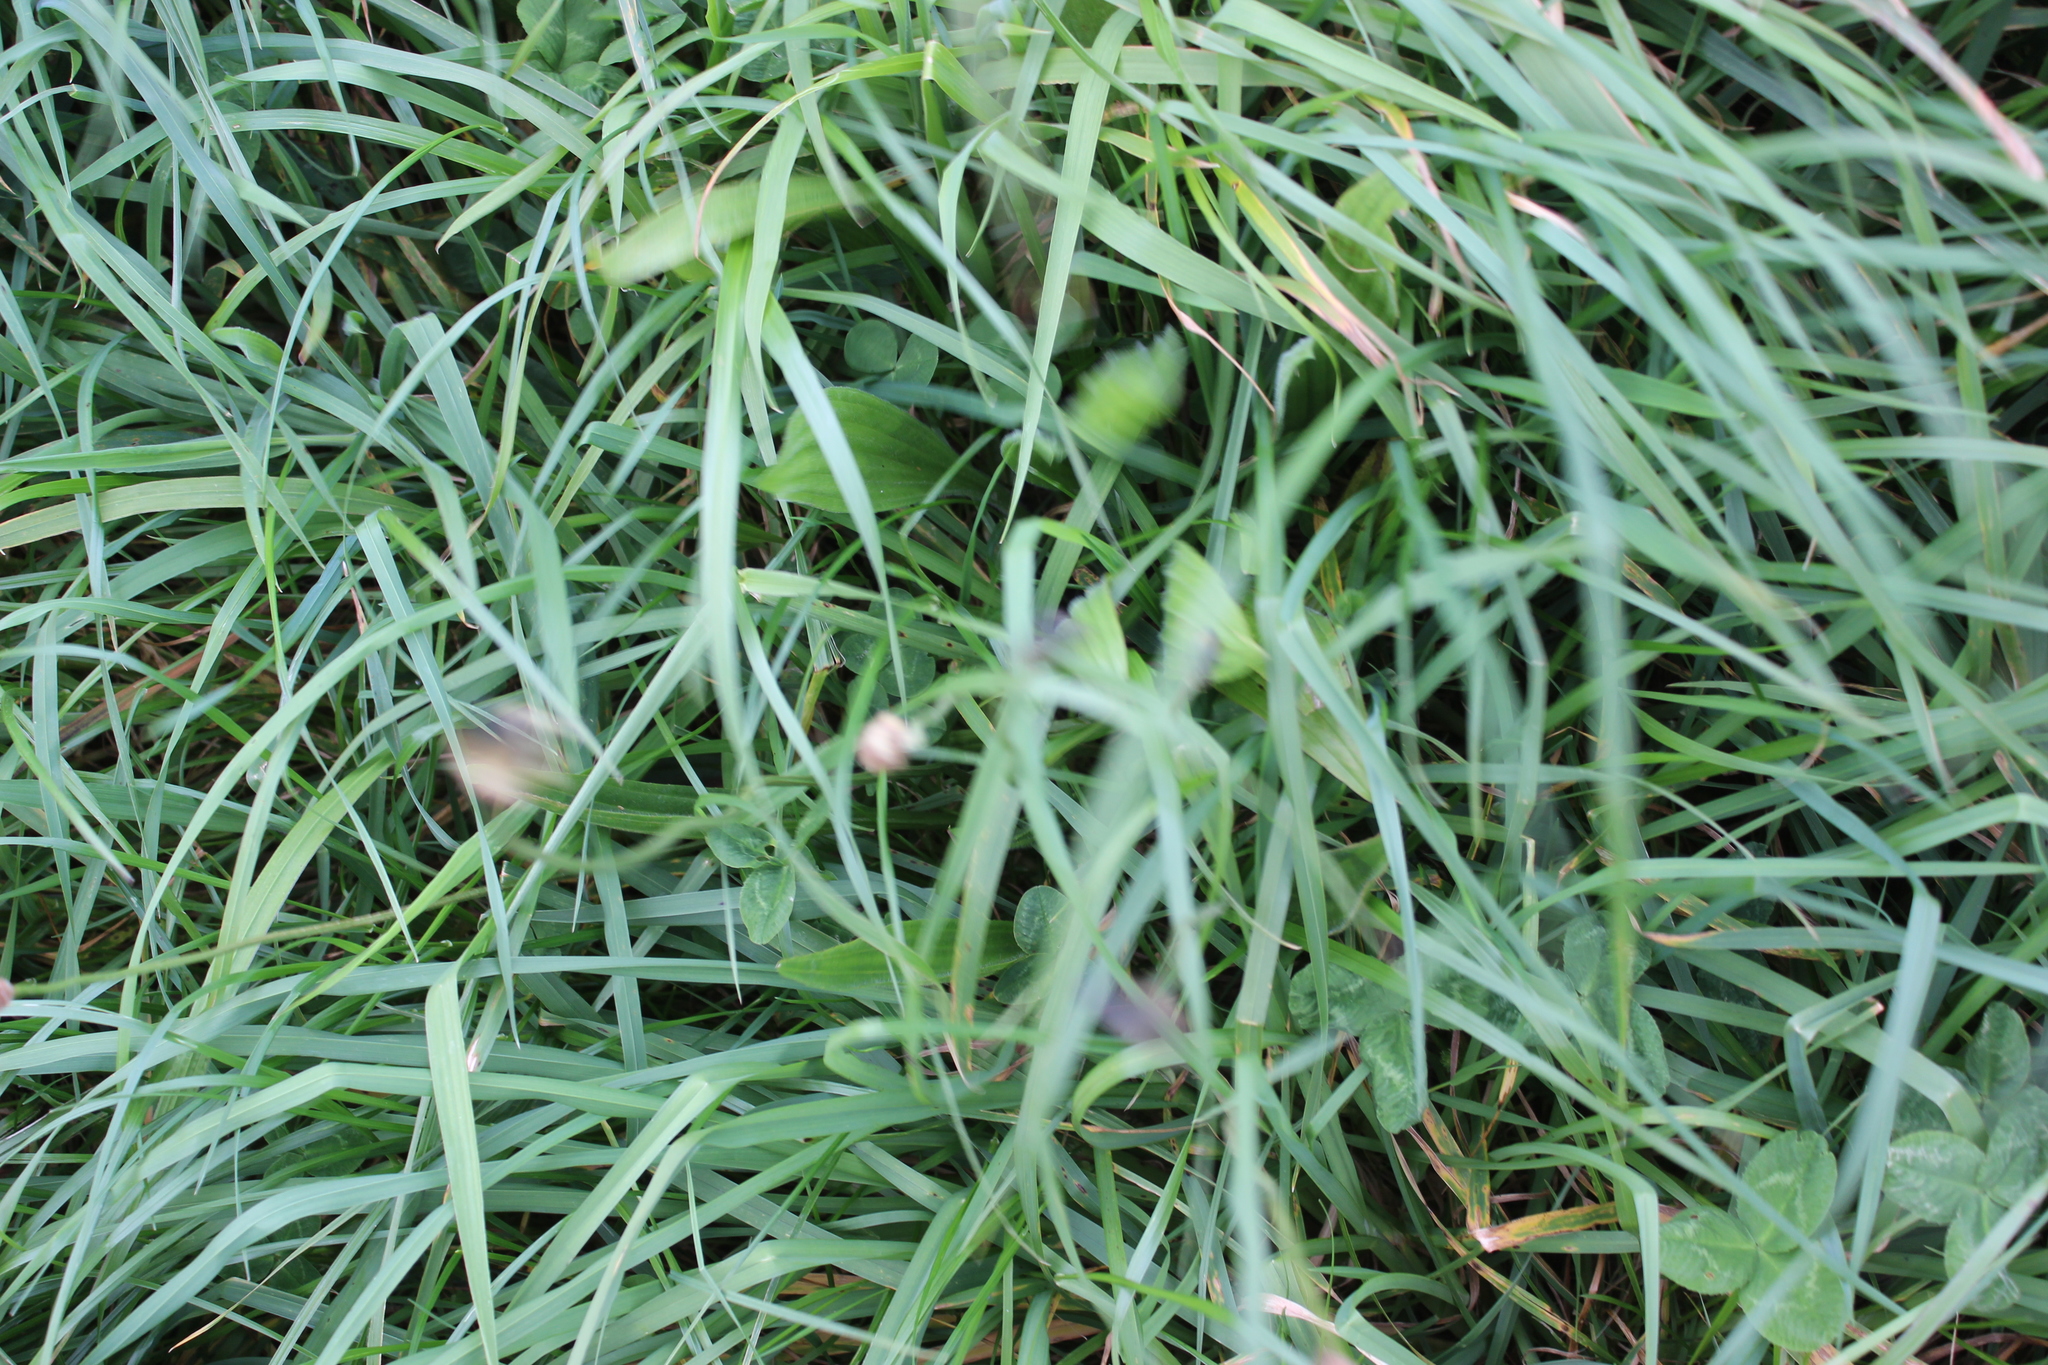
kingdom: Plantae
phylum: Tracheophyta
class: Magnoliopsida
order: Lamiales
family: Plantaginaceae
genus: Plantago
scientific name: Plantago lanceolata
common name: Ribwort plantain
